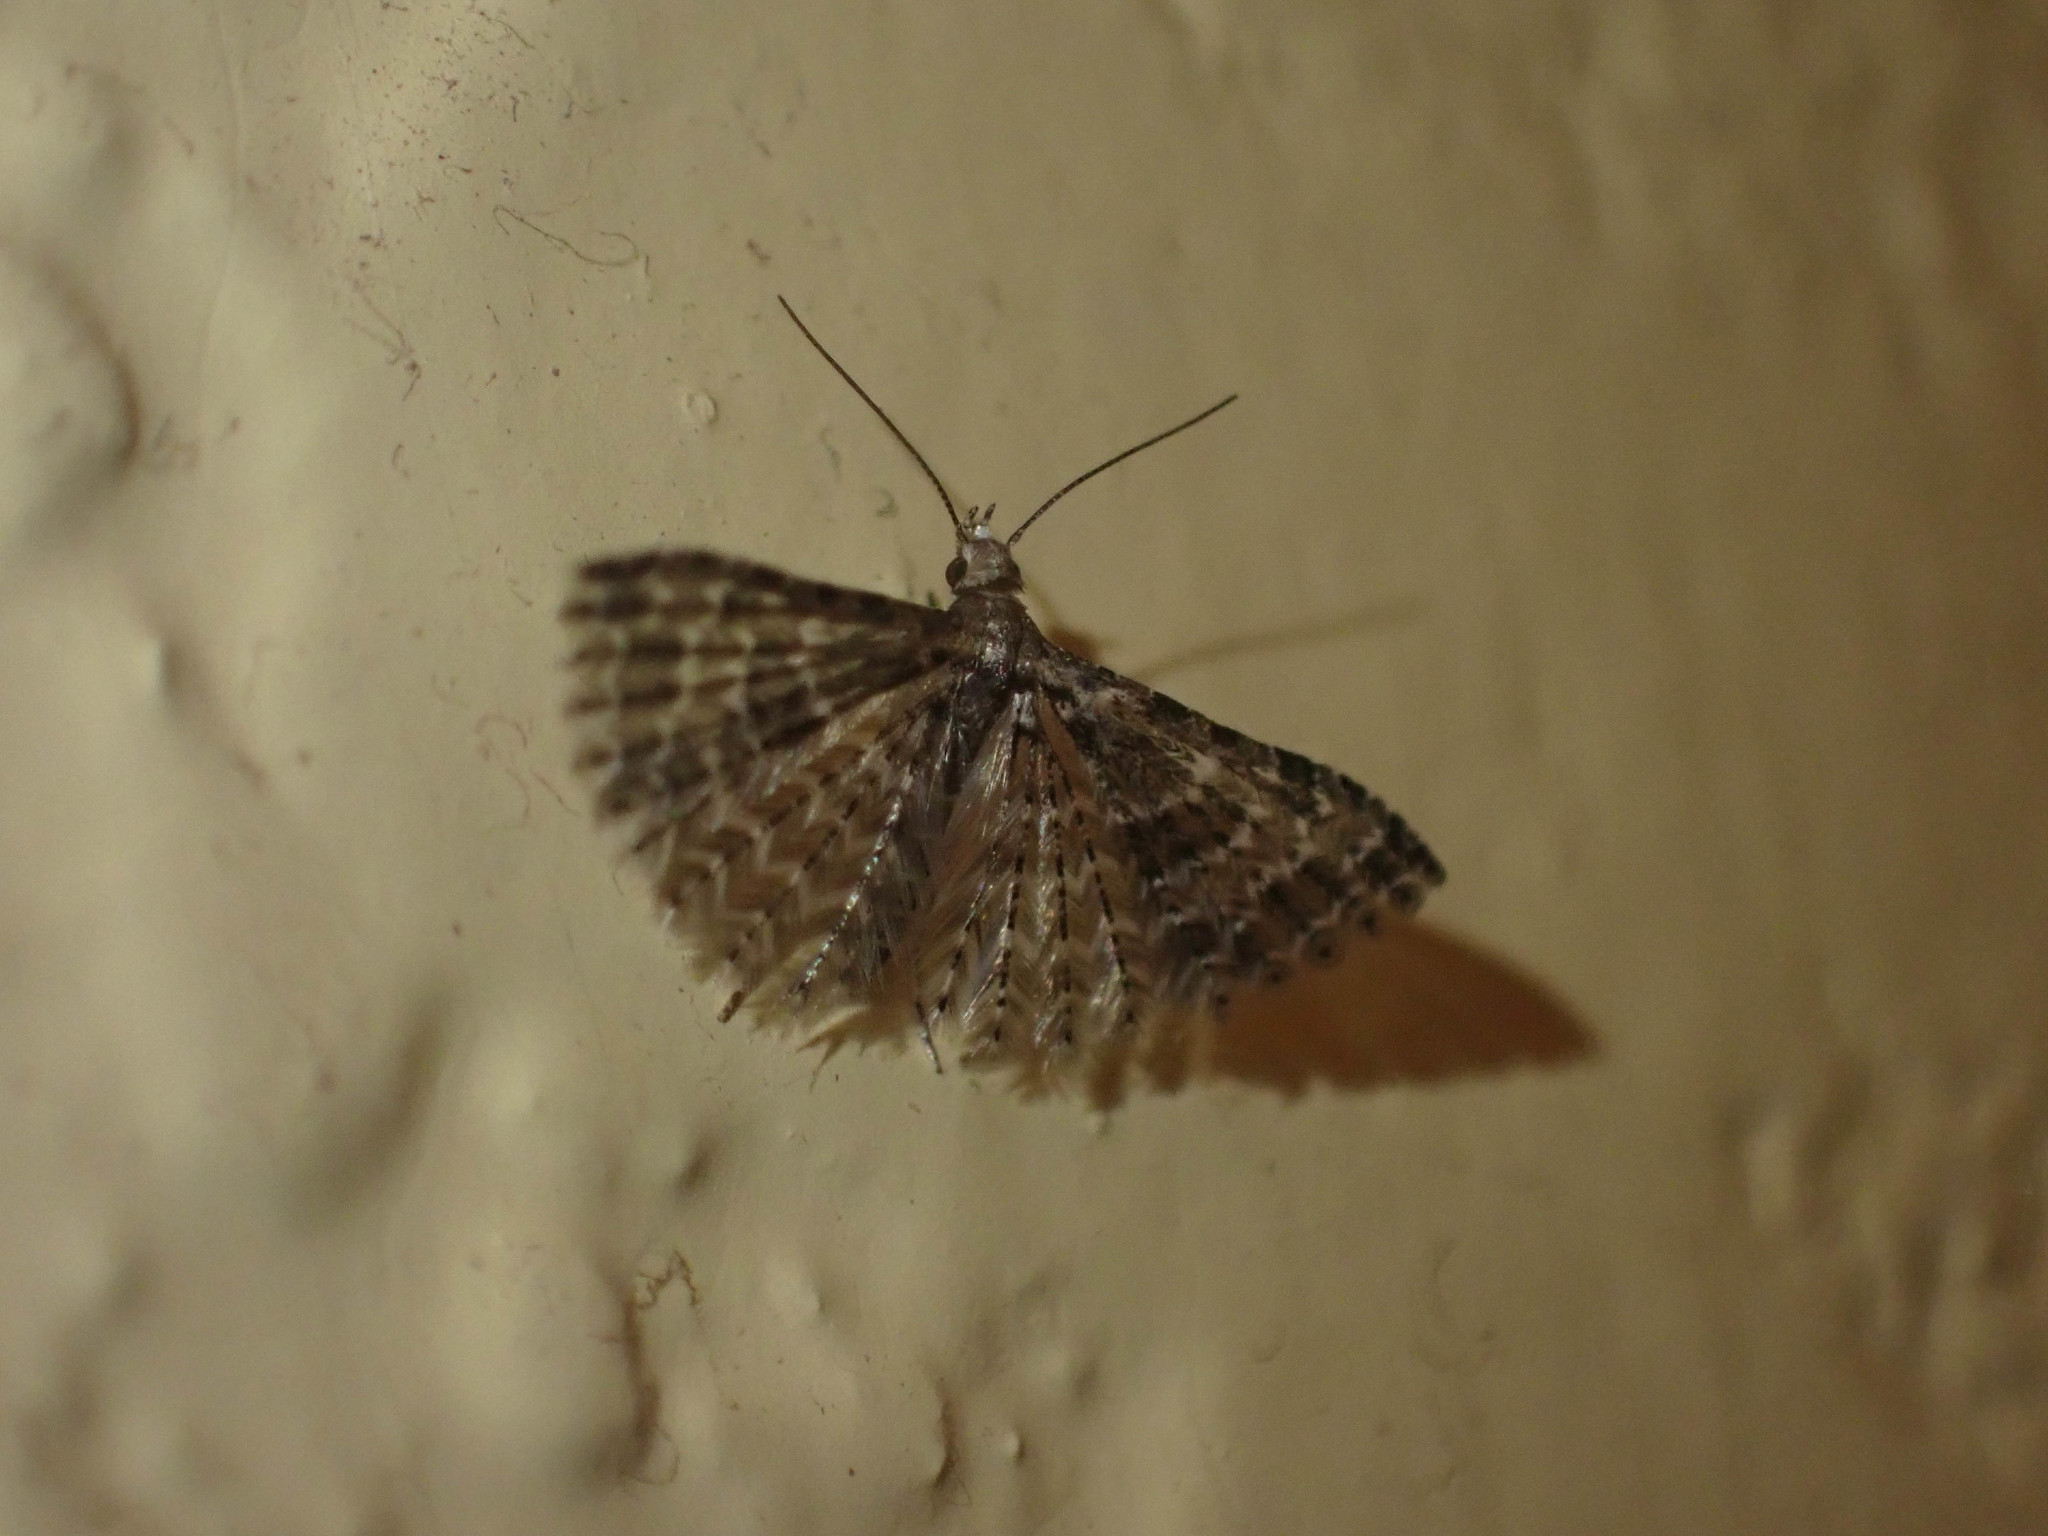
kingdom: Animalia
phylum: Arthropoda
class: Insecta
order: Lepidoptera
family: Alucitidae
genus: Alucita
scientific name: Alucita montana
